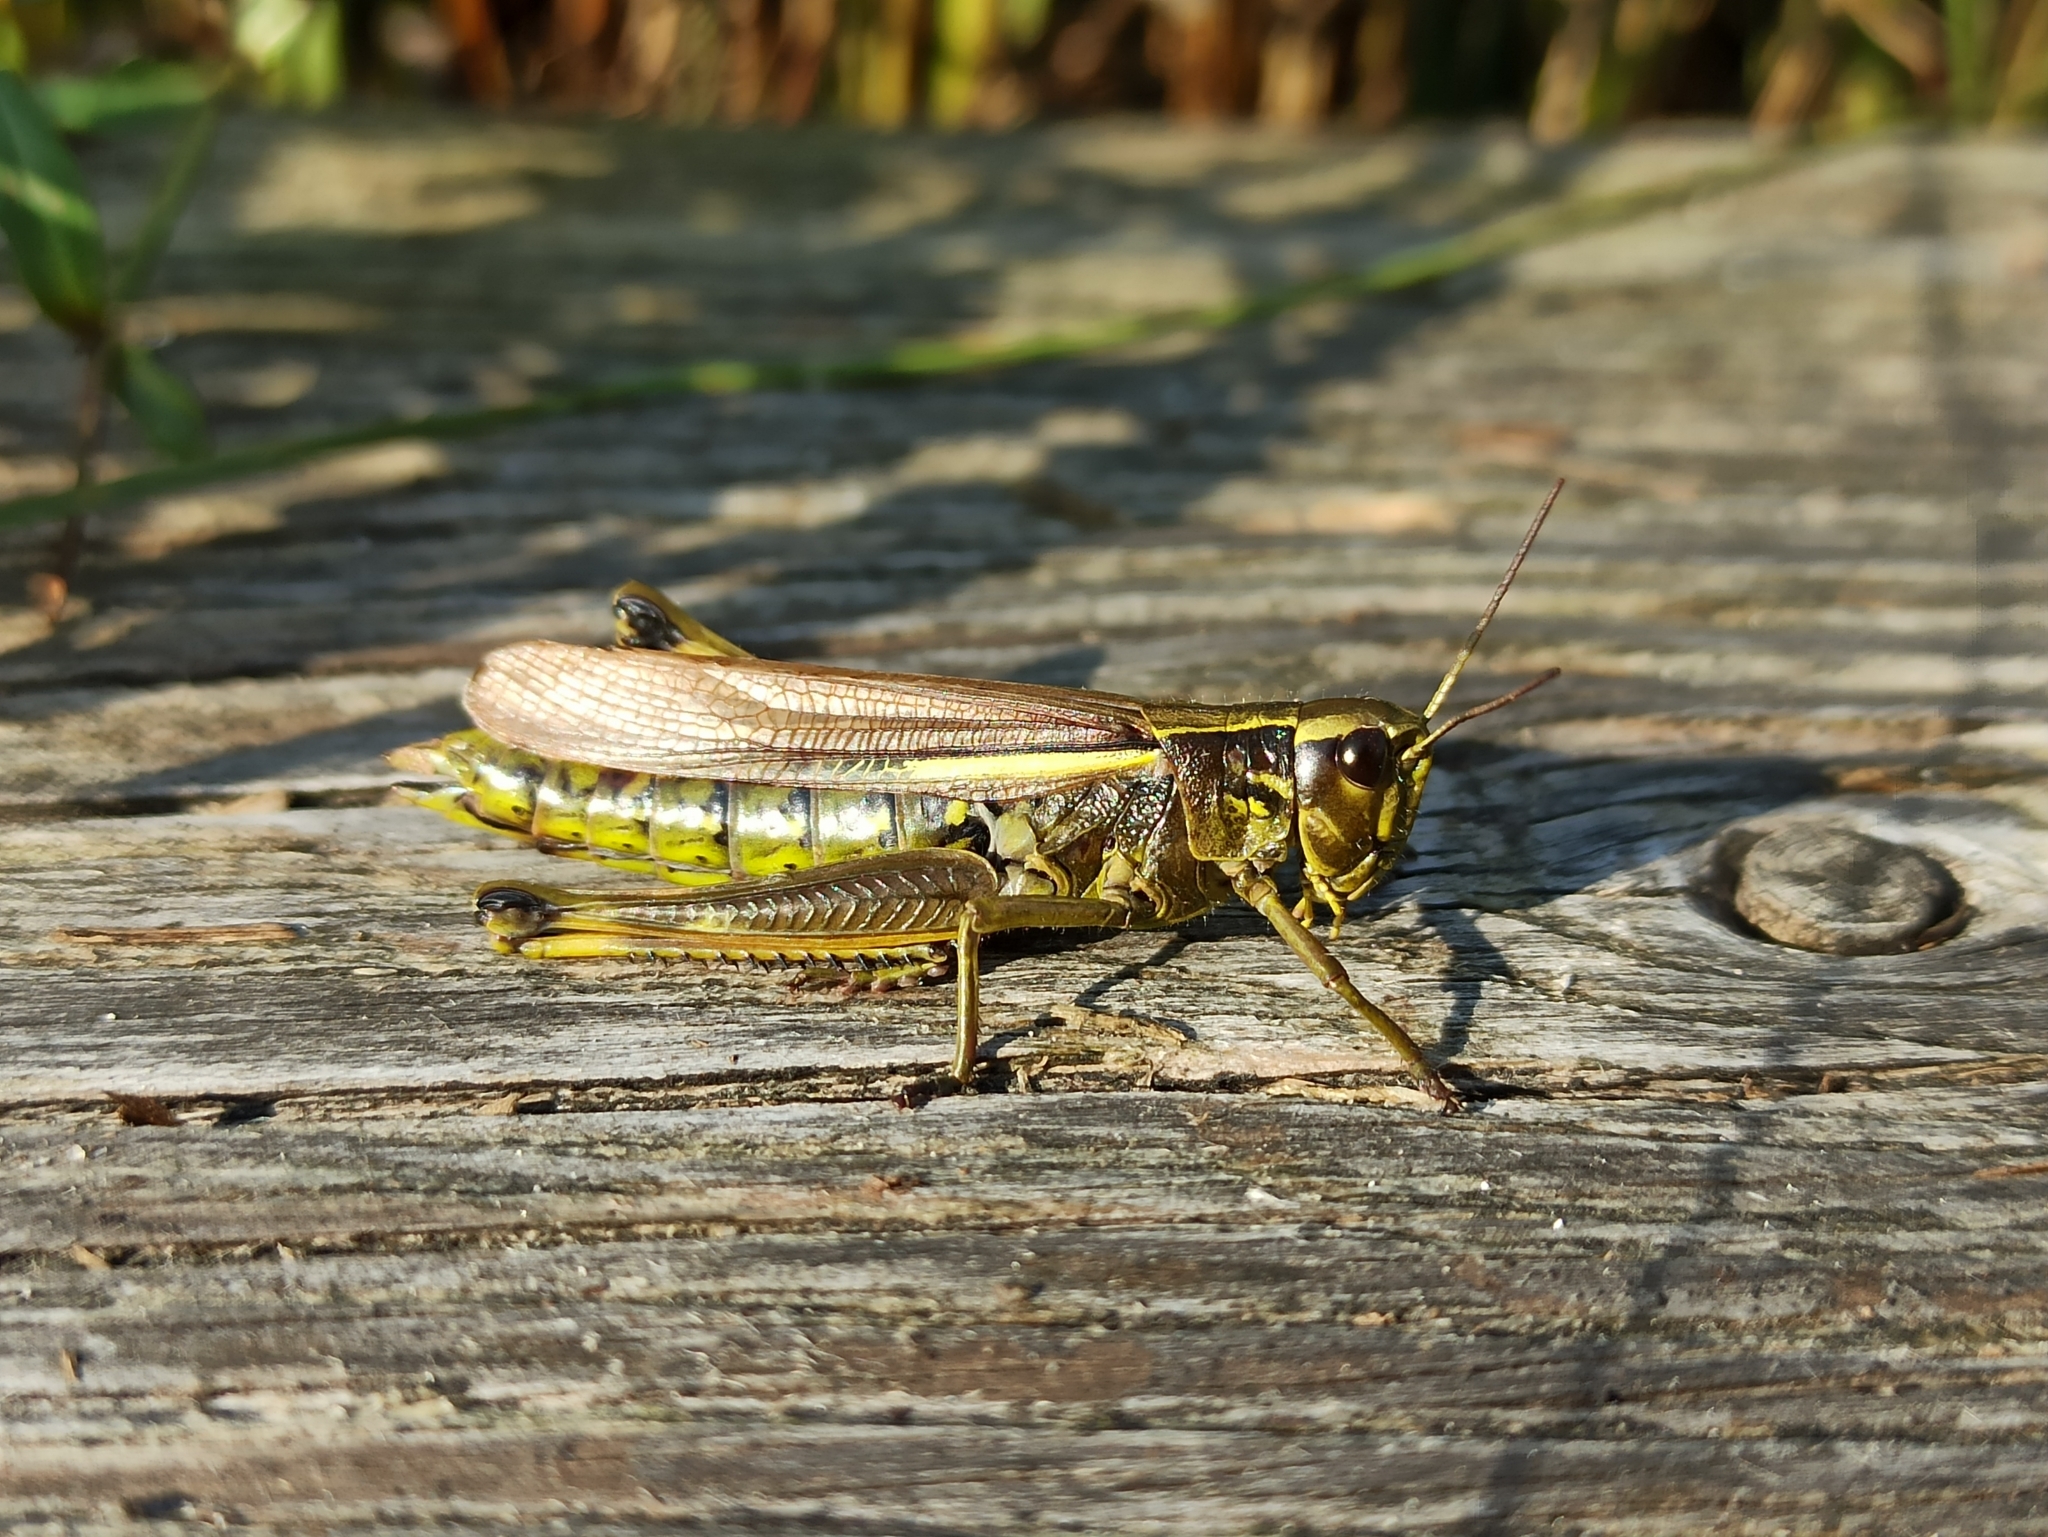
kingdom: Animalia
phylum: Arthropoda
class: Insecta
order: Orthoptera
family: Acrididae
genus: Stethophyma
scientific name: Stethophyma grossum
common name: Large marsh grasshopper
